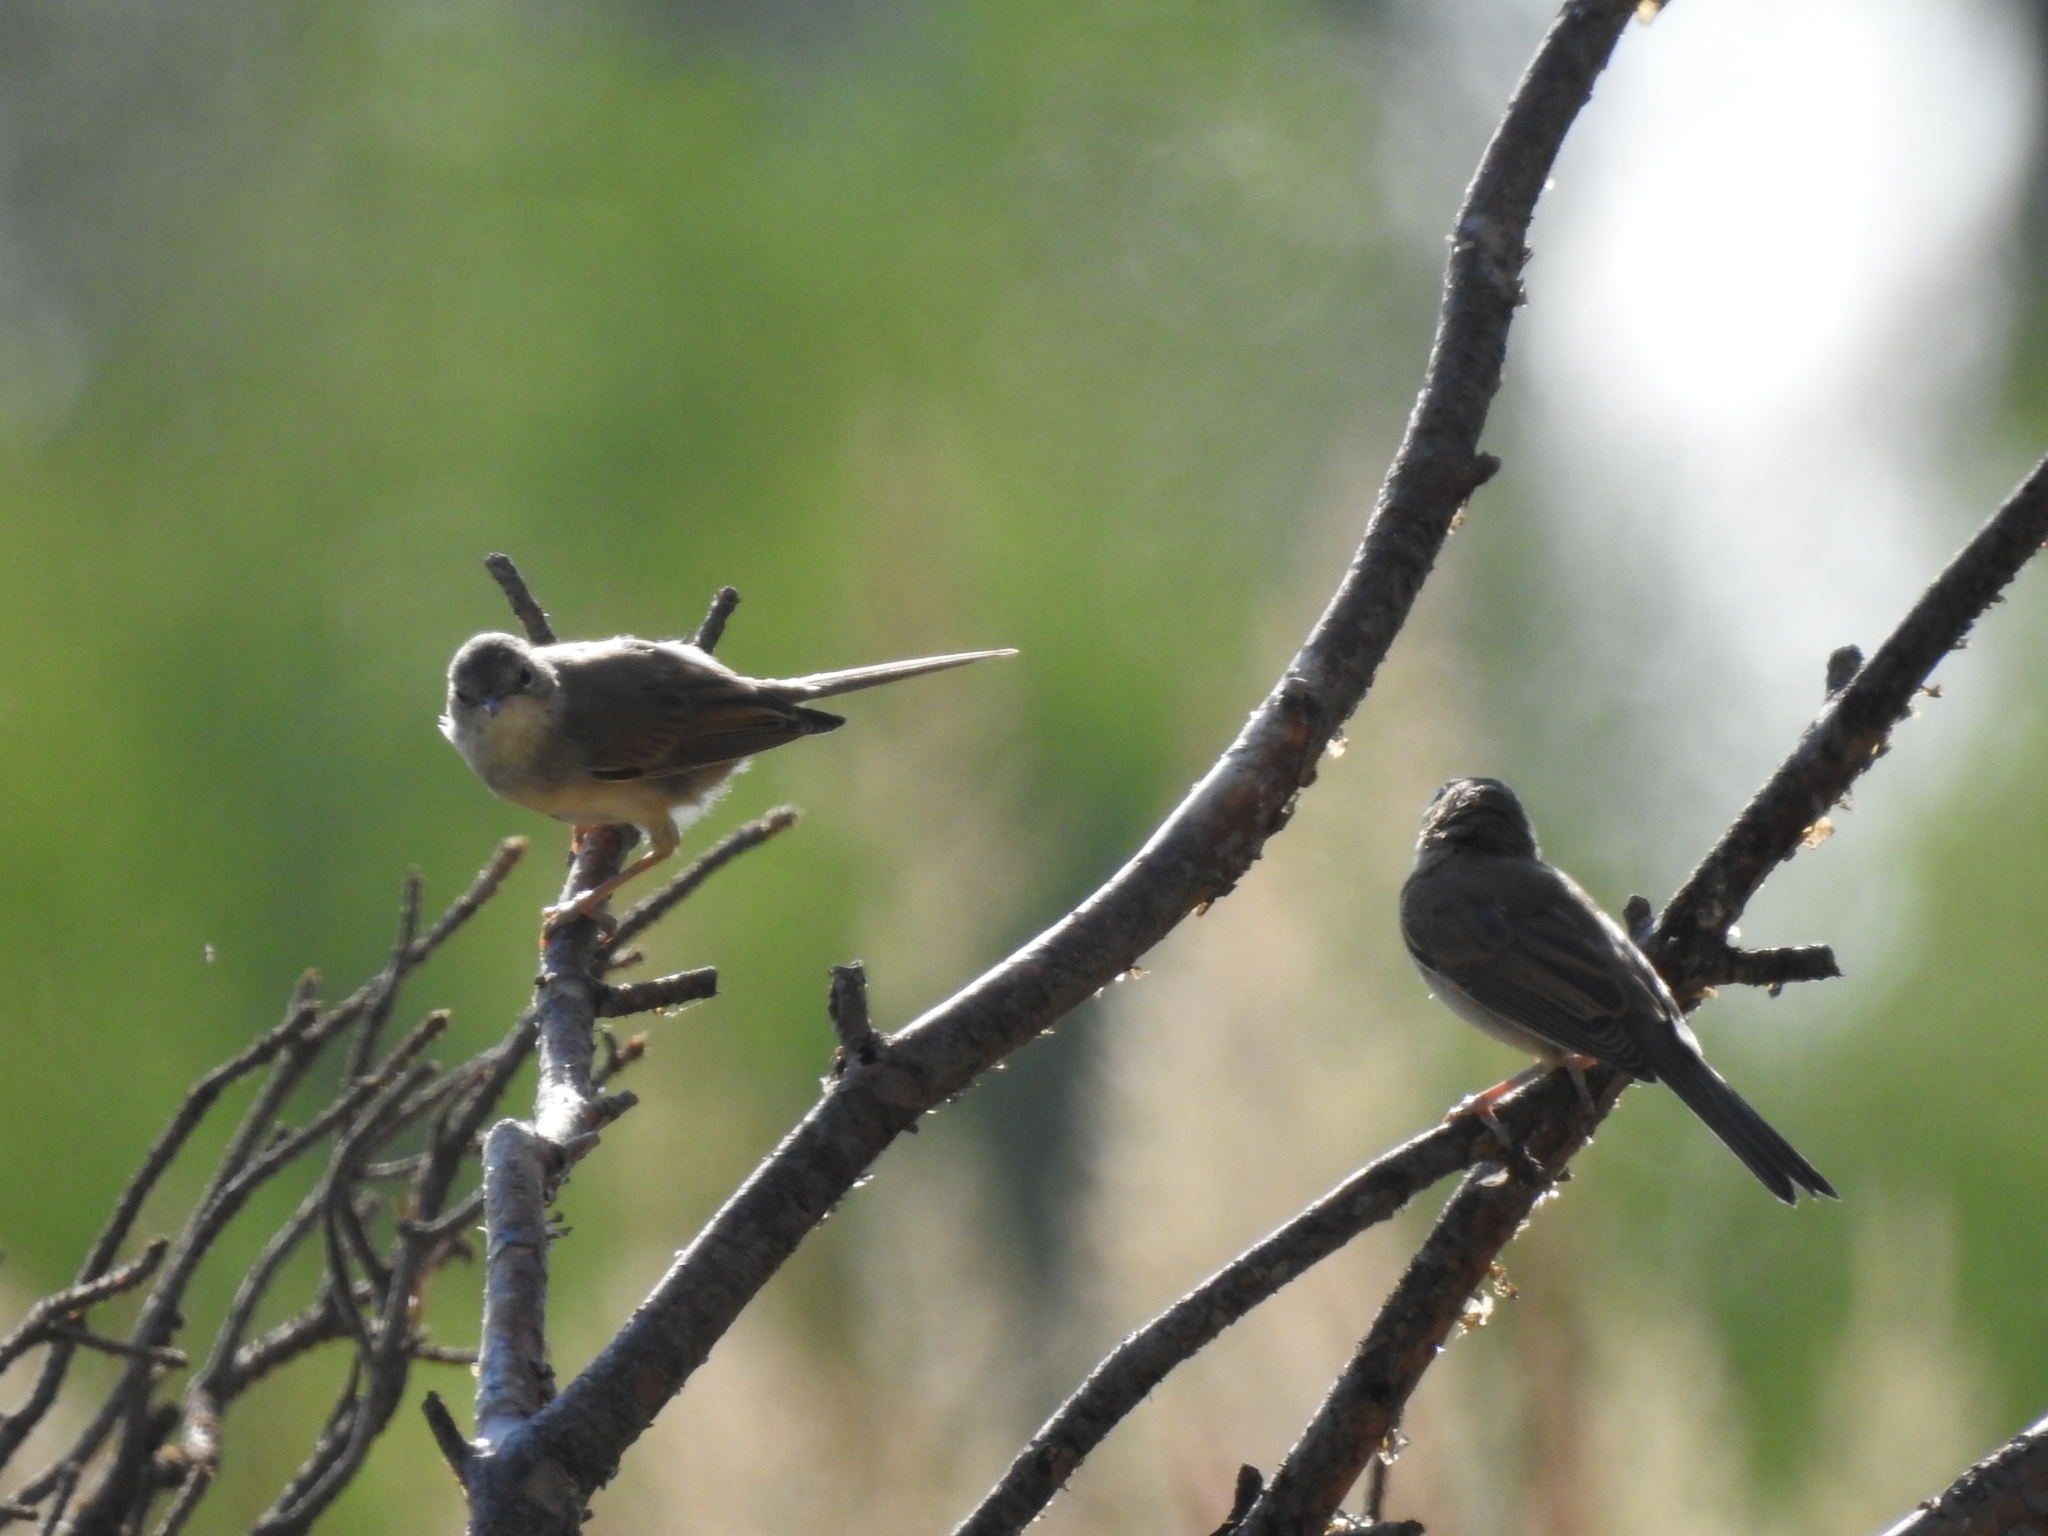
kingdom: Animalia
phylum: Chordata
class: Aves
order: Passeriformes
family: Sylviidae
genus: Sylvia
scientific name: Sylvia communis
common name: Common whitethroat
